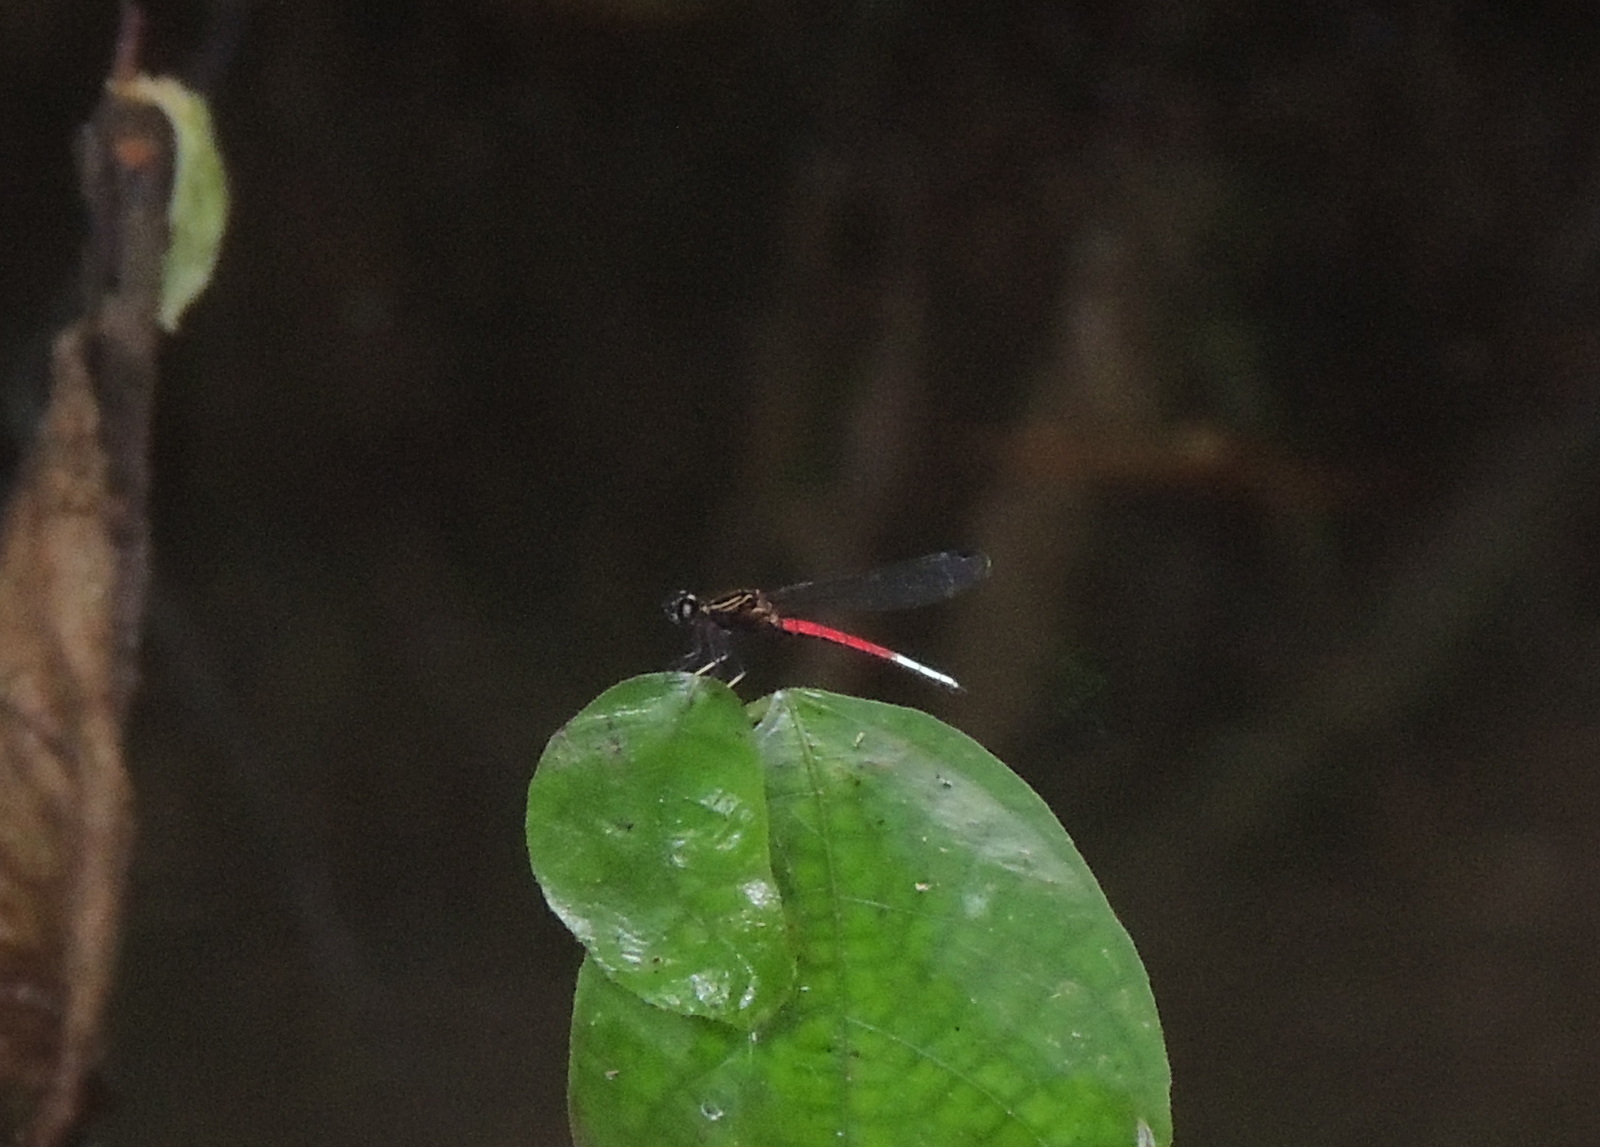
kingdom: Animalia
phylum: Arthropoda
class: Insecta
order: Odonata
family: Chlorocyphidae
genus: Chlorocypha
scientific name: Chlorocypha curta
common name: Blue-tipped jewel
